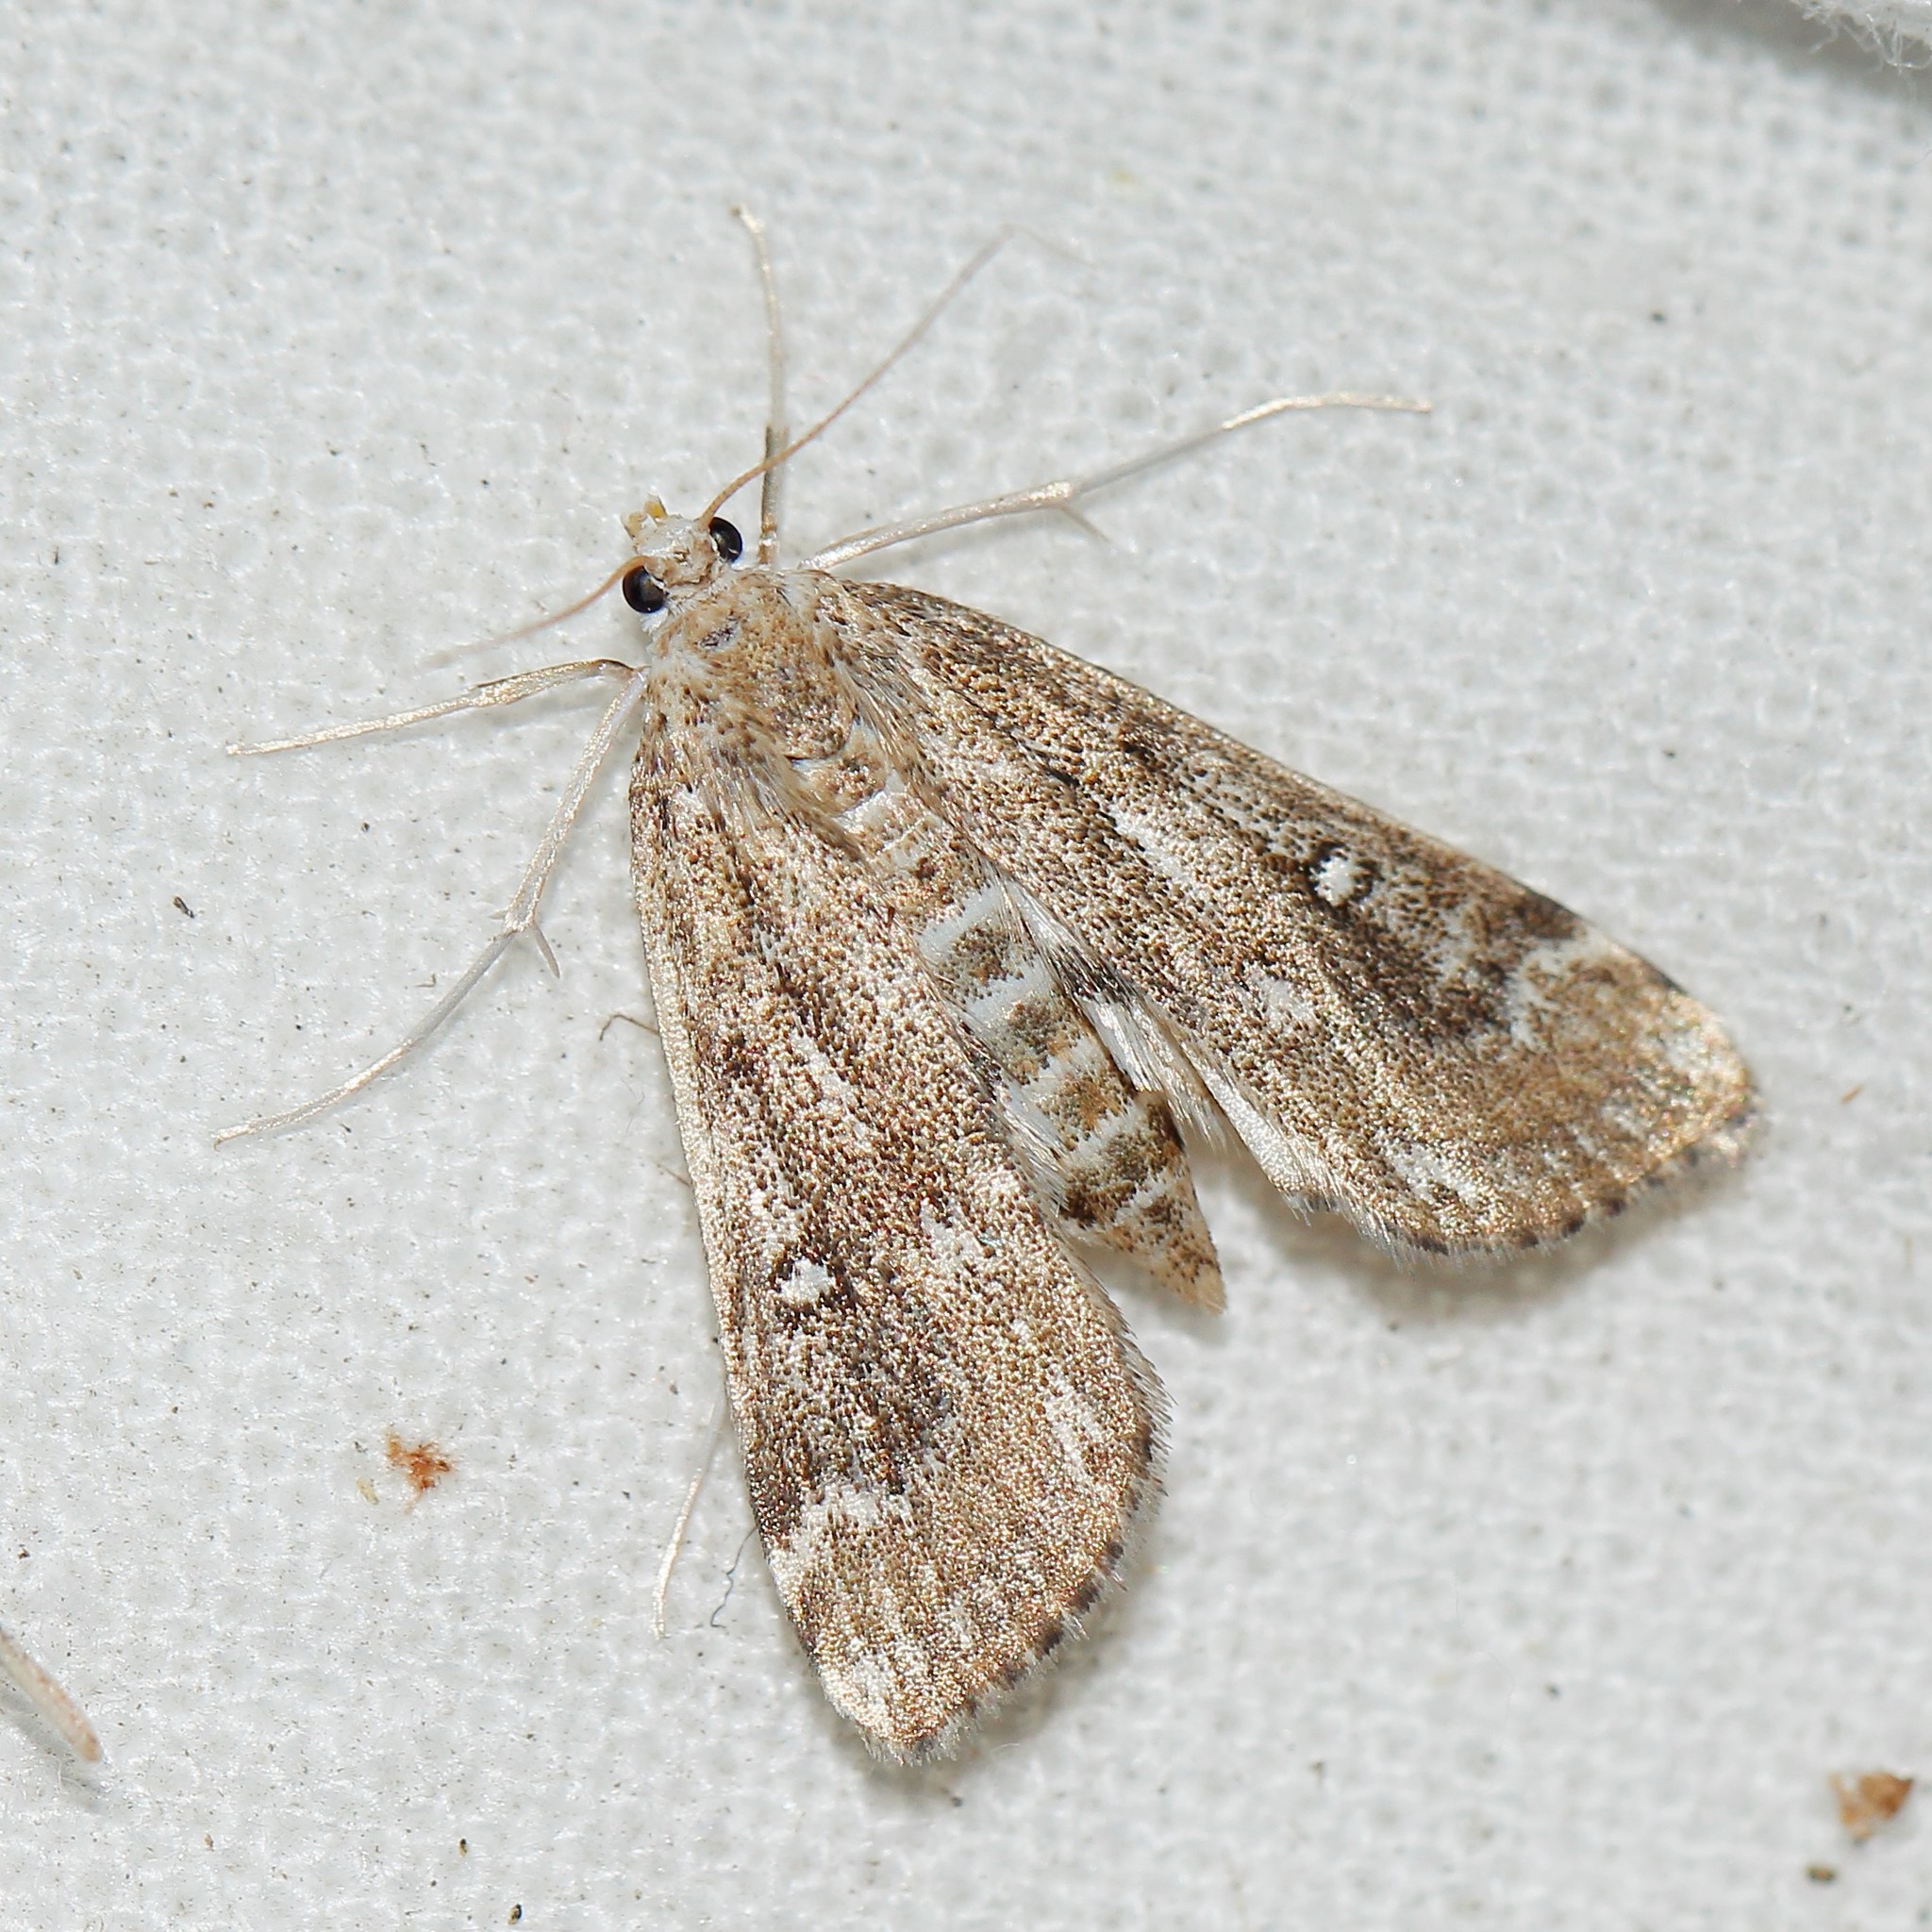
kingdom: Animalia
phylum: Arthropoda
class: Insecta
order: Lepidoptera
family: Crambidae
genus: Parapoynx
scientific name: Parapoynx stratiotata
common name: Ringed china-mark
